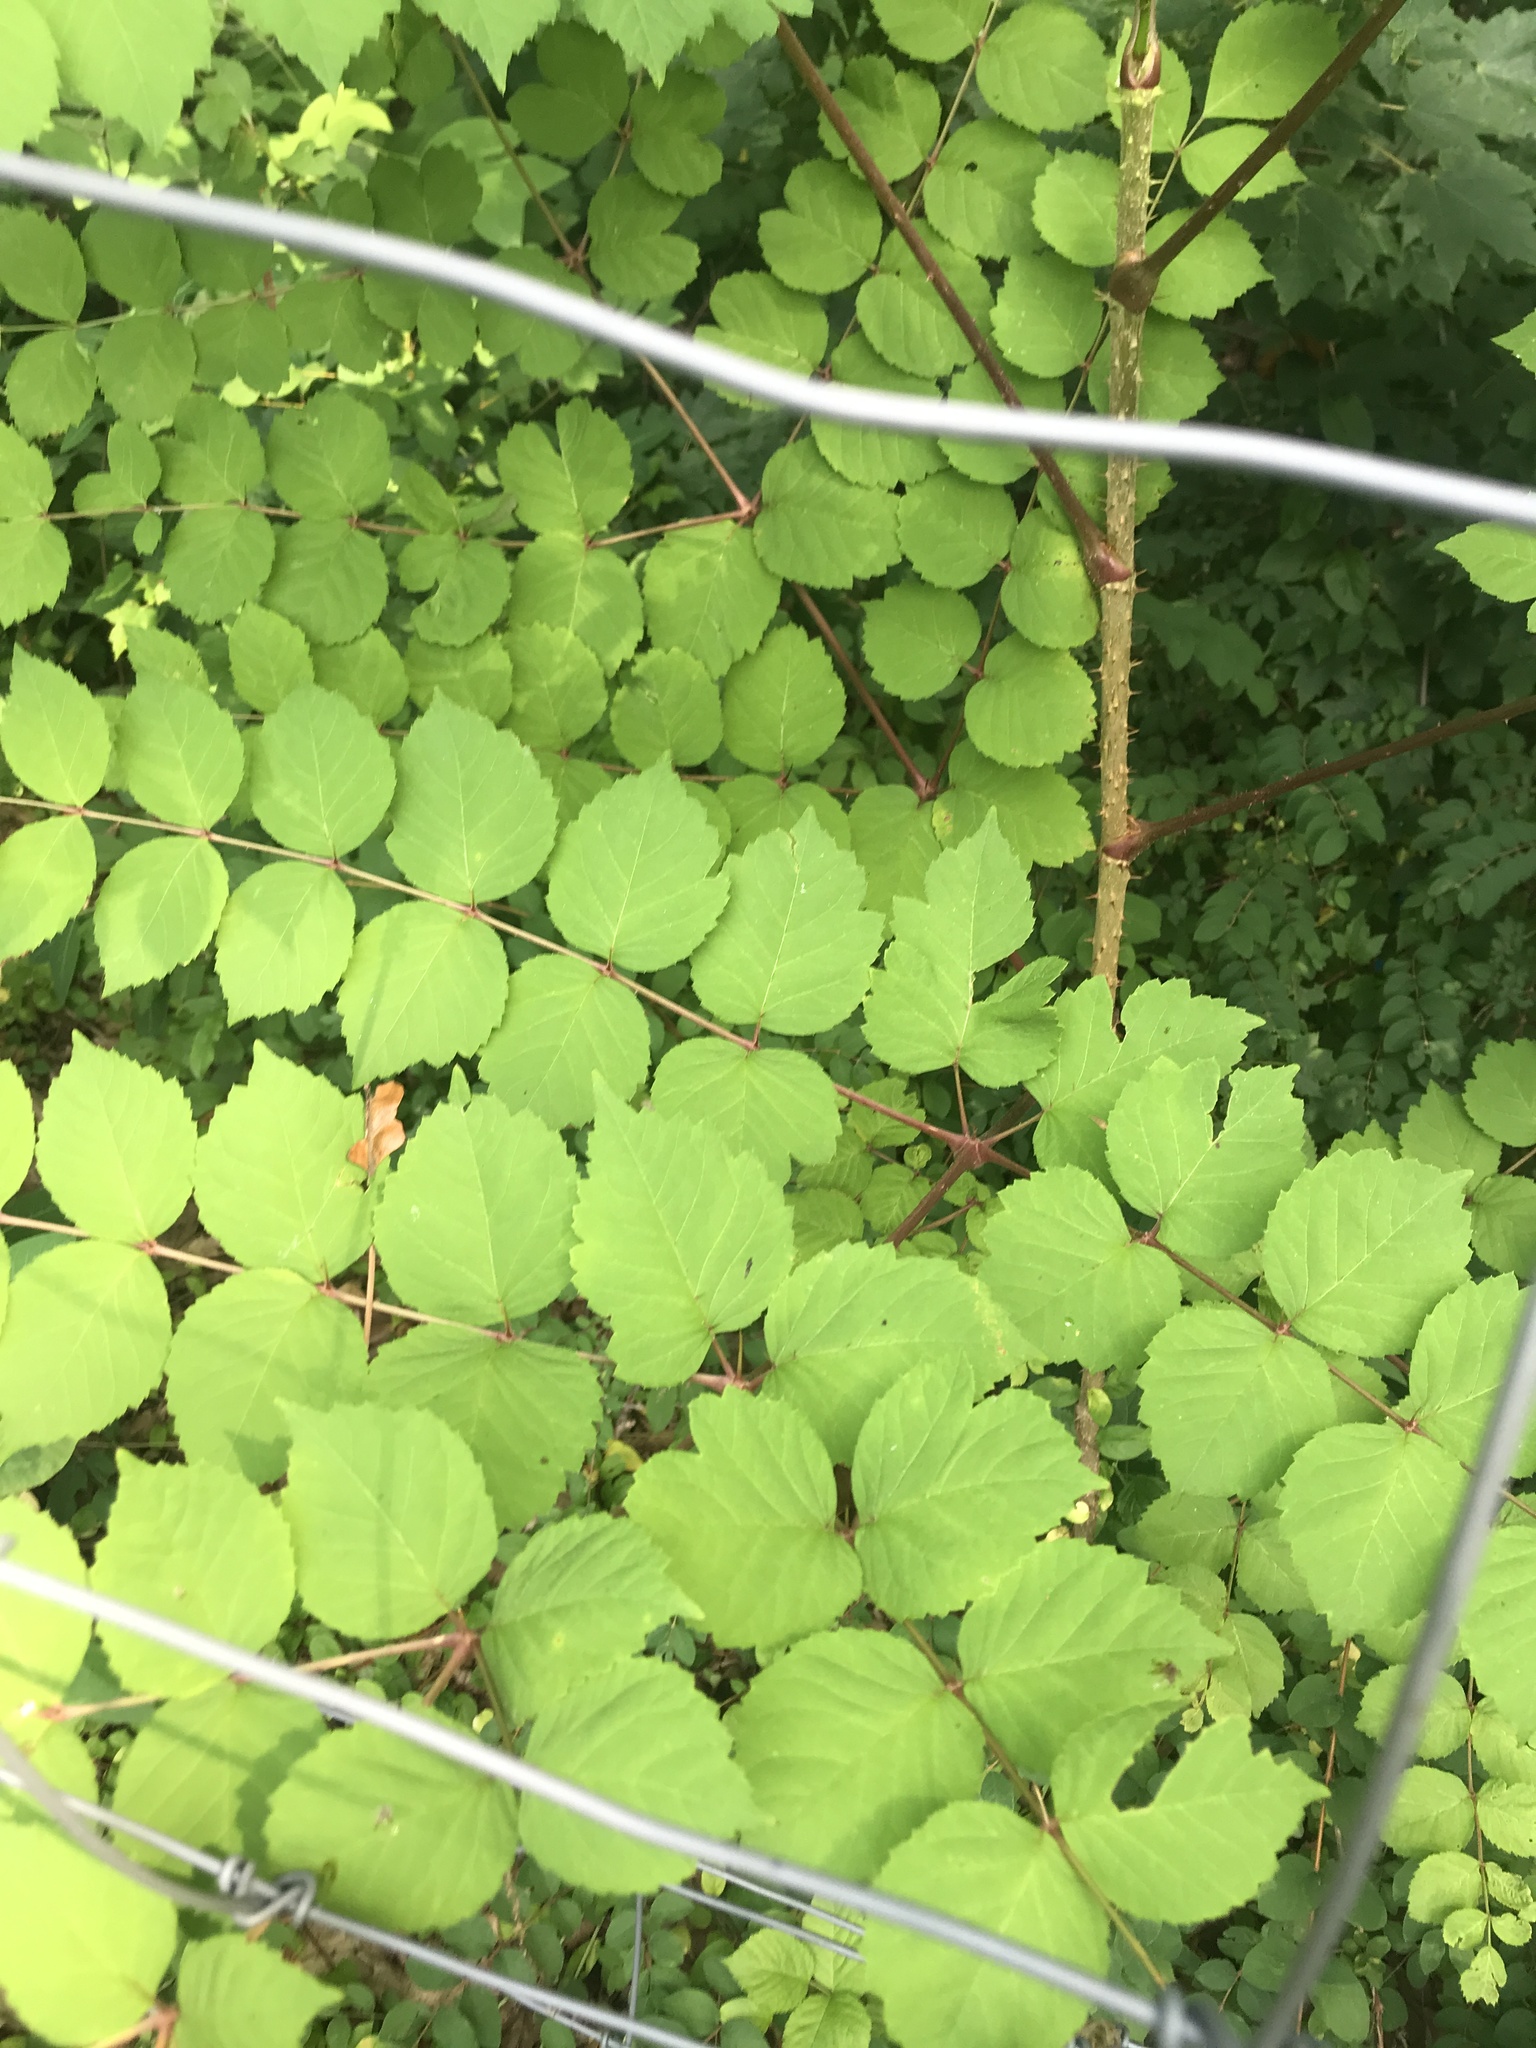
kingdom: Plantae
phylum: Tracheophyta
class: Magnoliopsida
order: Apiales
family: Araliaceae
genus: Aralia
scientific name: Aralia elata
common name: Japanese angelica-tree
